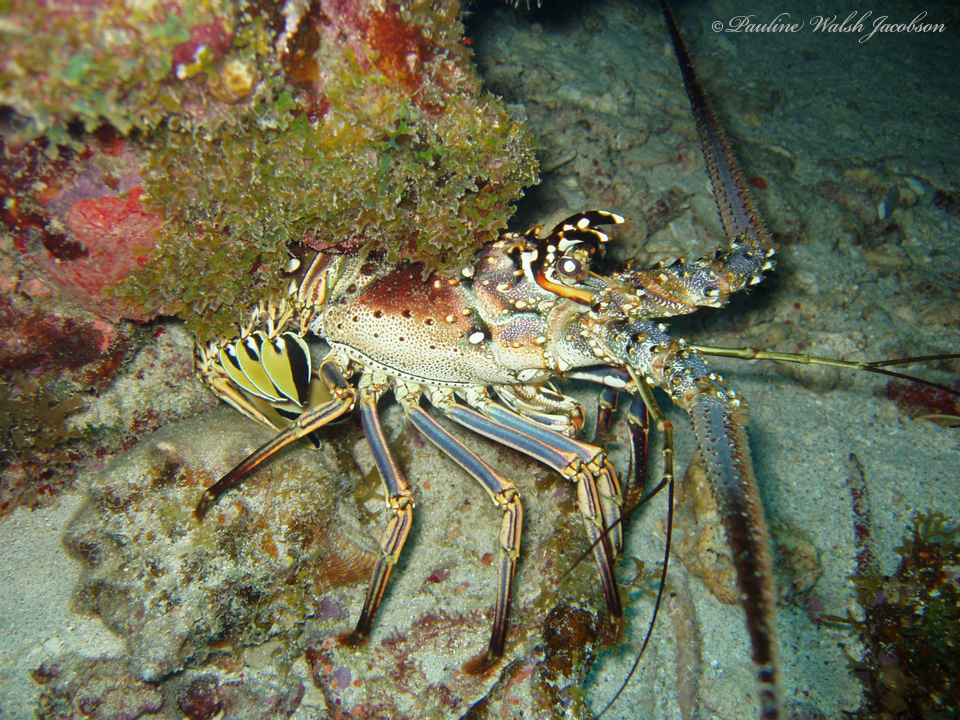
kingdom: Animalia
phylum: Arthropoda
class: Malacostraca
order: Decapoda
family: Palinuridae
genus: Panulirus
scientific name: Panulirus argus
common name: Caribbean spiny lobster
